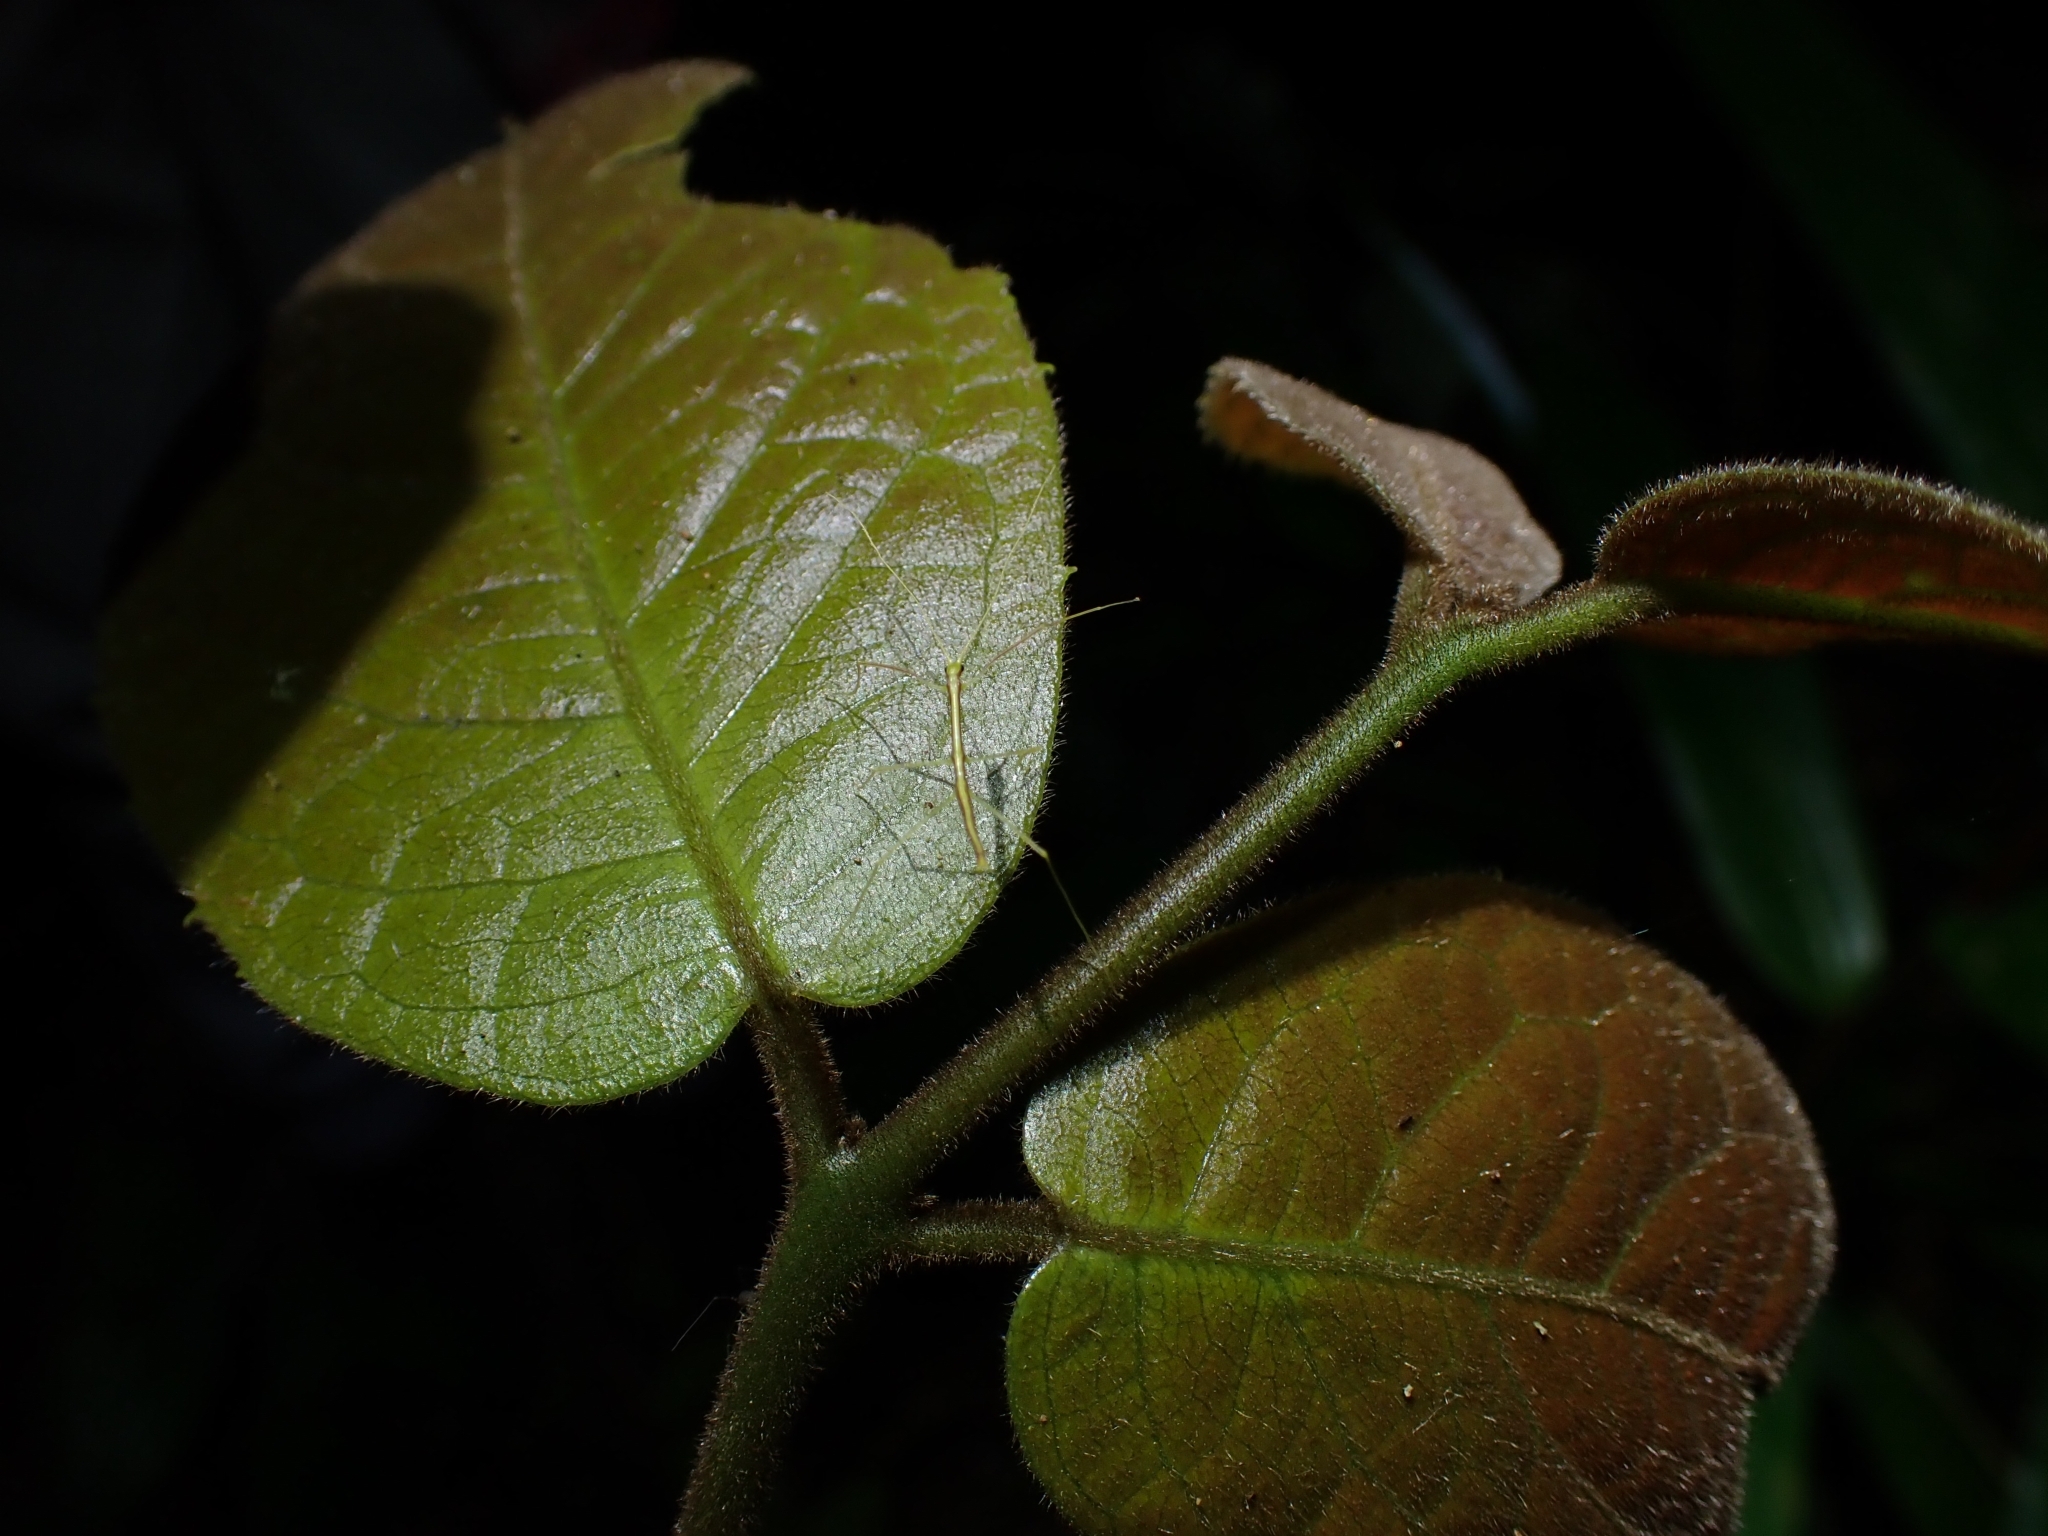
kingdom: Animalia
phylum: Arthropoda
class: Insecta
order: Phasmida
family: Lonchodidae
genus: Scionecra
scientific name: Scionecra queenslandica
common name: Queensland scionecra stick-insect
